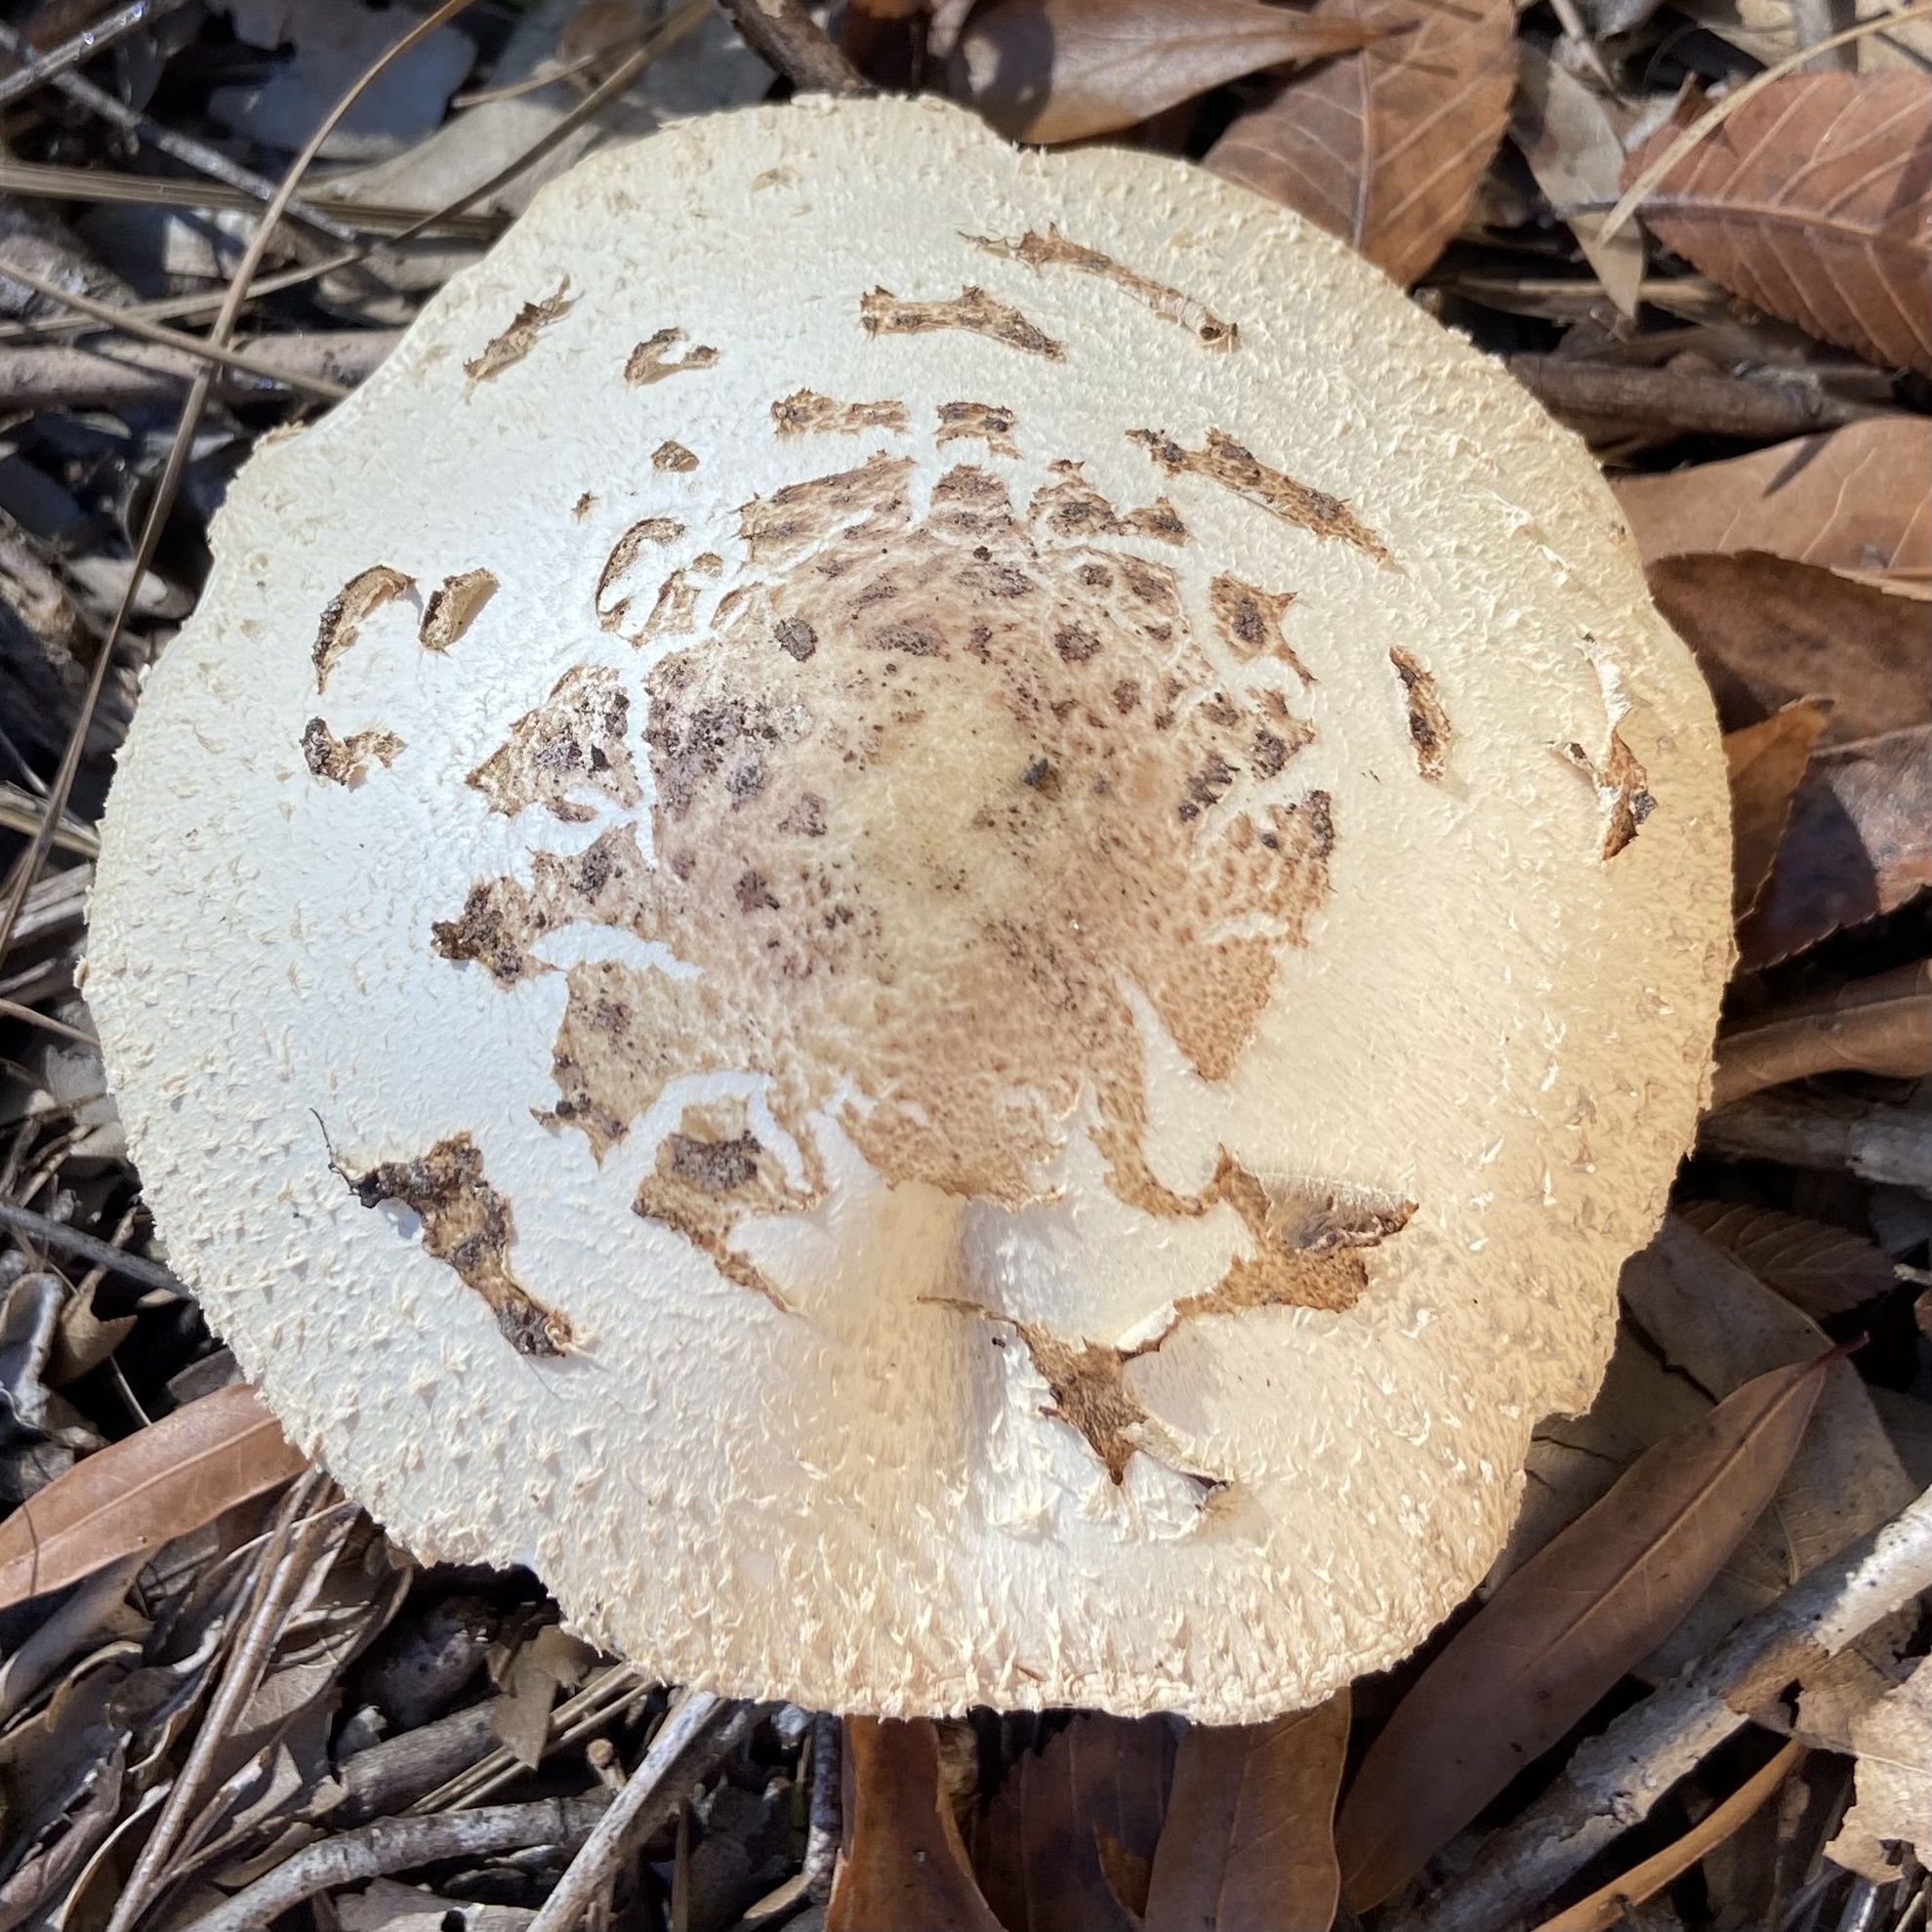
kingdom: Fungi
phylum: Basidiomycota
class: Agaricomycetes
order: Agaricales
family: Agaricaceae
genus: Chlorophyllum
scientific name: Chlorophyllum molybdites
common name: False parasol
